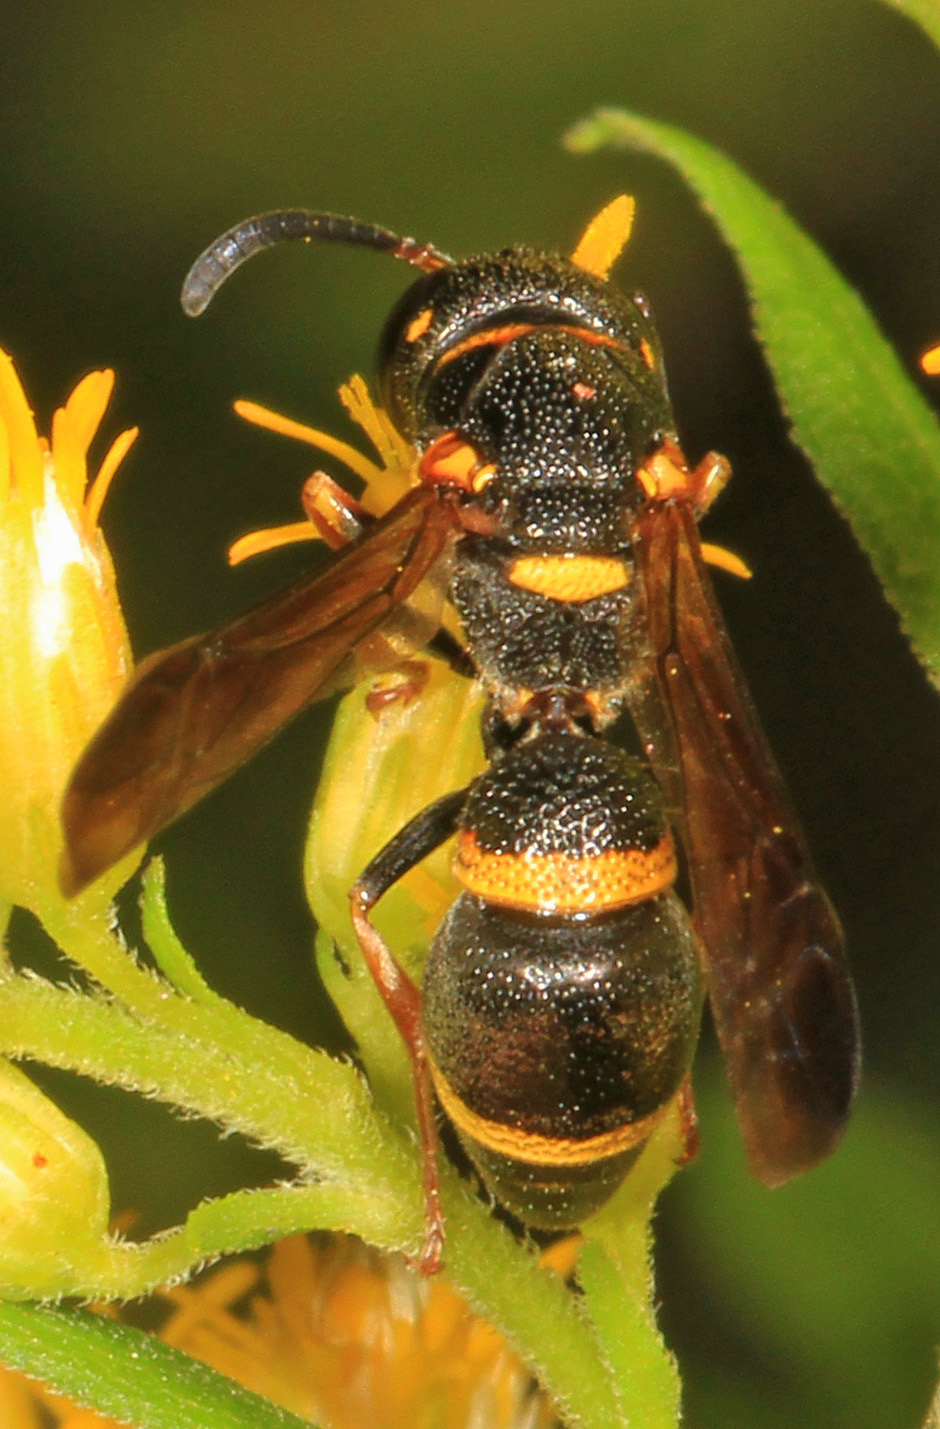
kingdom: Animalia
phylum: Arthropoda
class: Insecta
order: Hymenoptera
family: Eumenidae
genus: Parancistrocerus
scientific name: Parancistrocerus perennis
